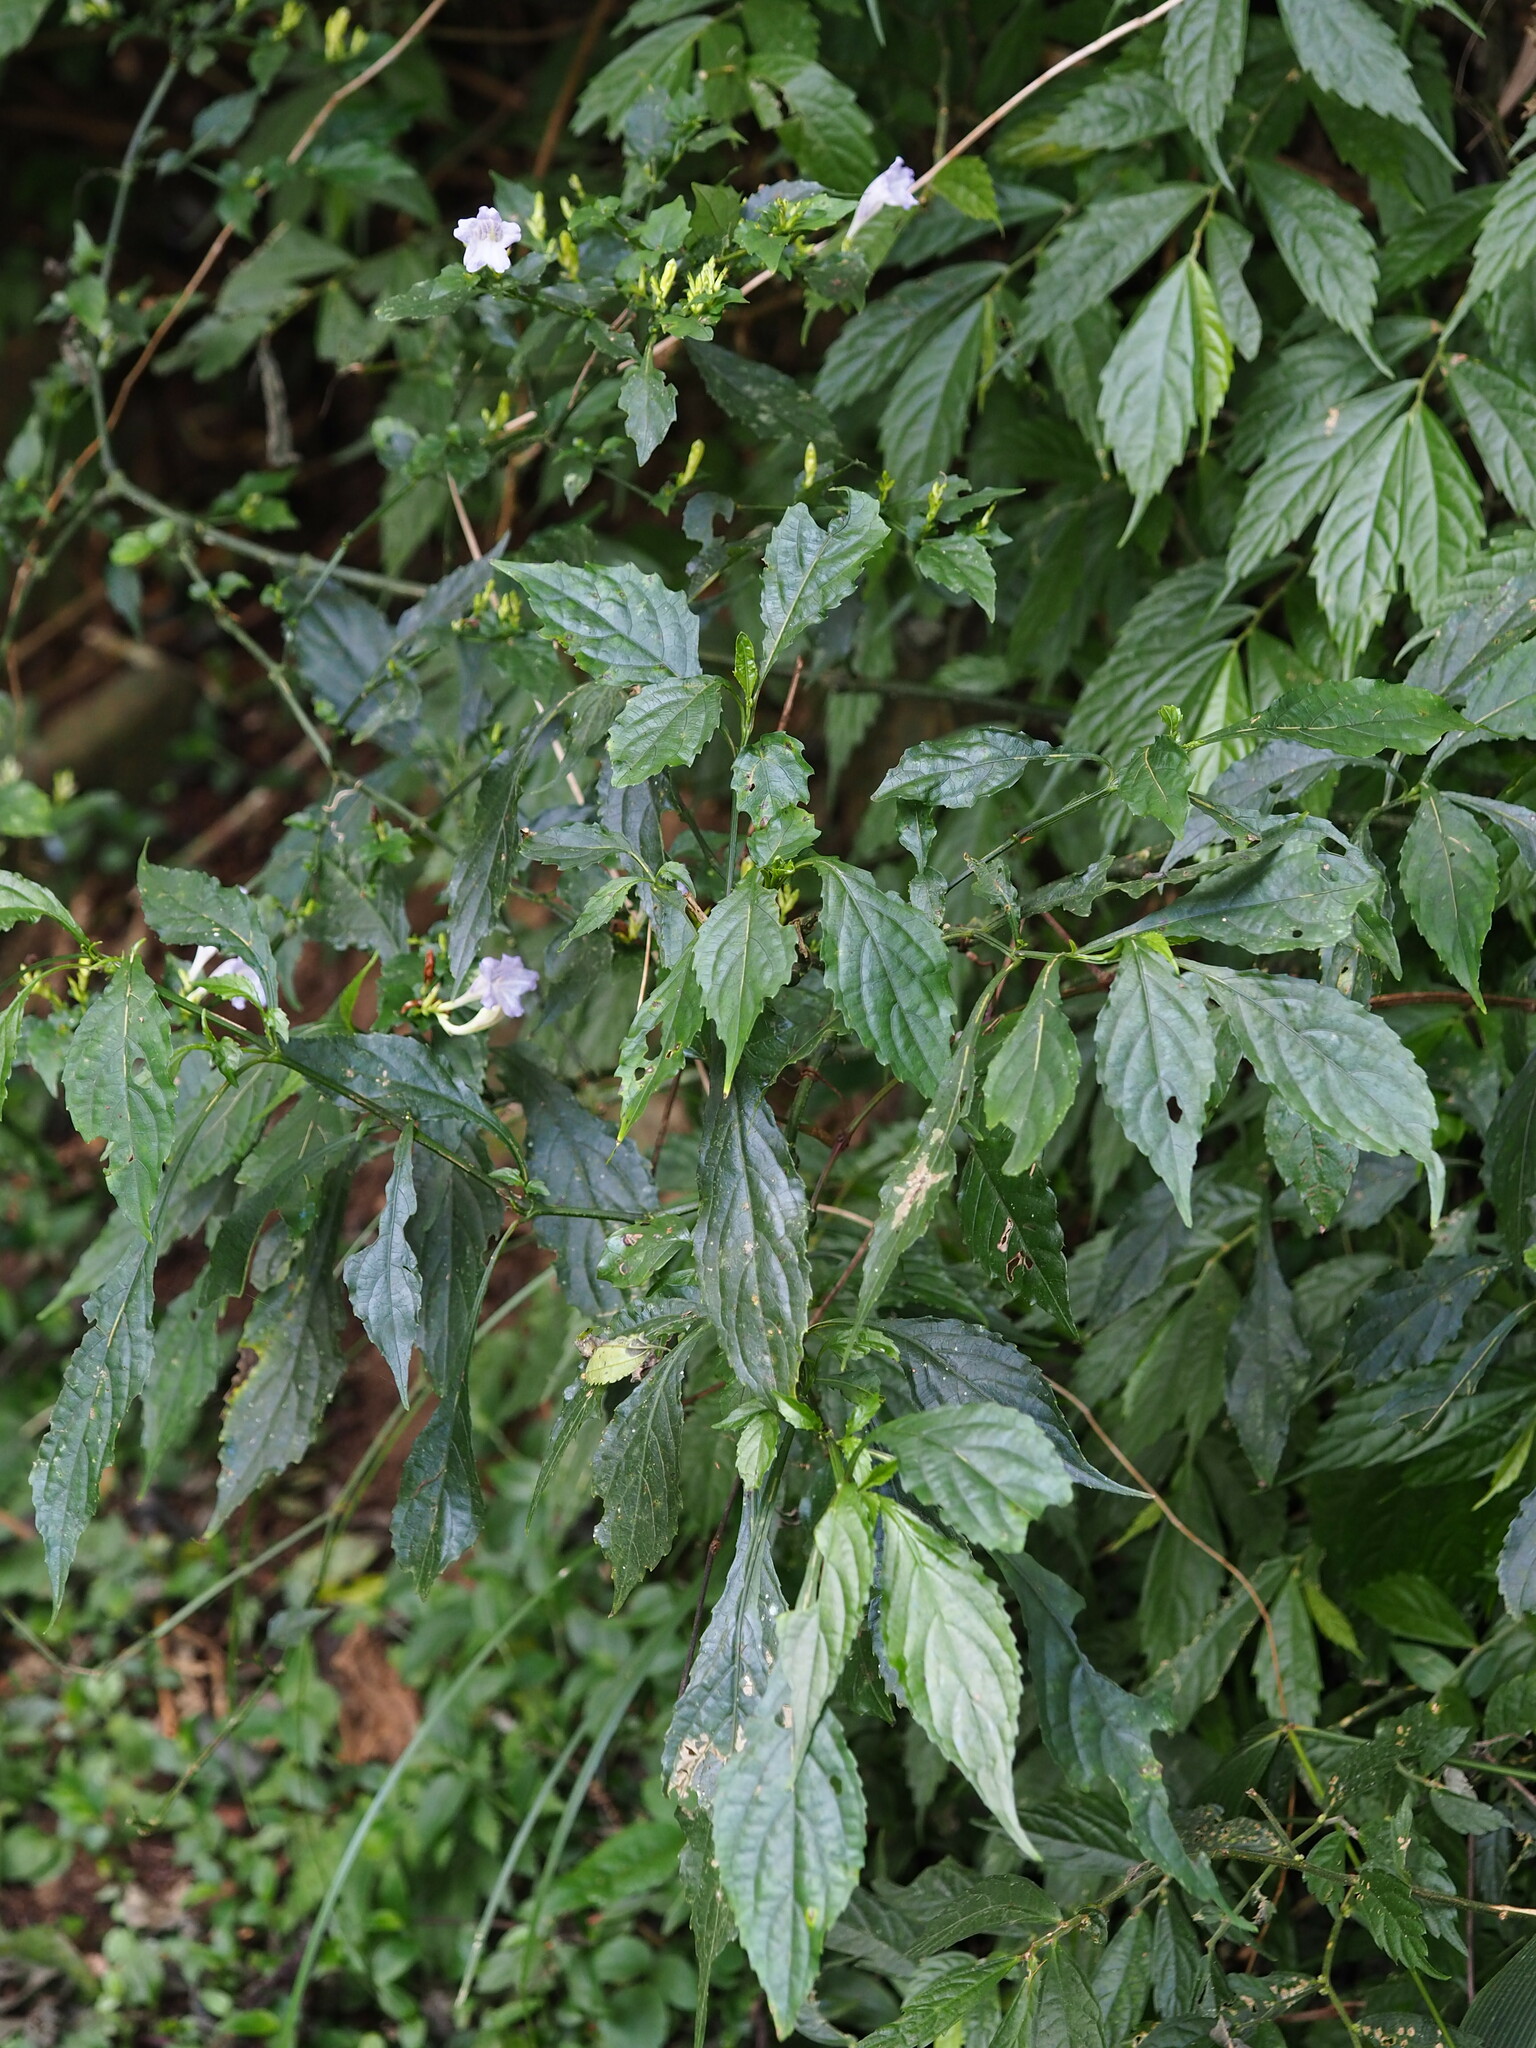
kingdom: Plantae
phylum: Tracheophyta
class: Magnoliopsida
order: Lamiales
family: Acanthaceae
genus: Strobilanthes
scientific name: Strobilanthes flexicaulis
